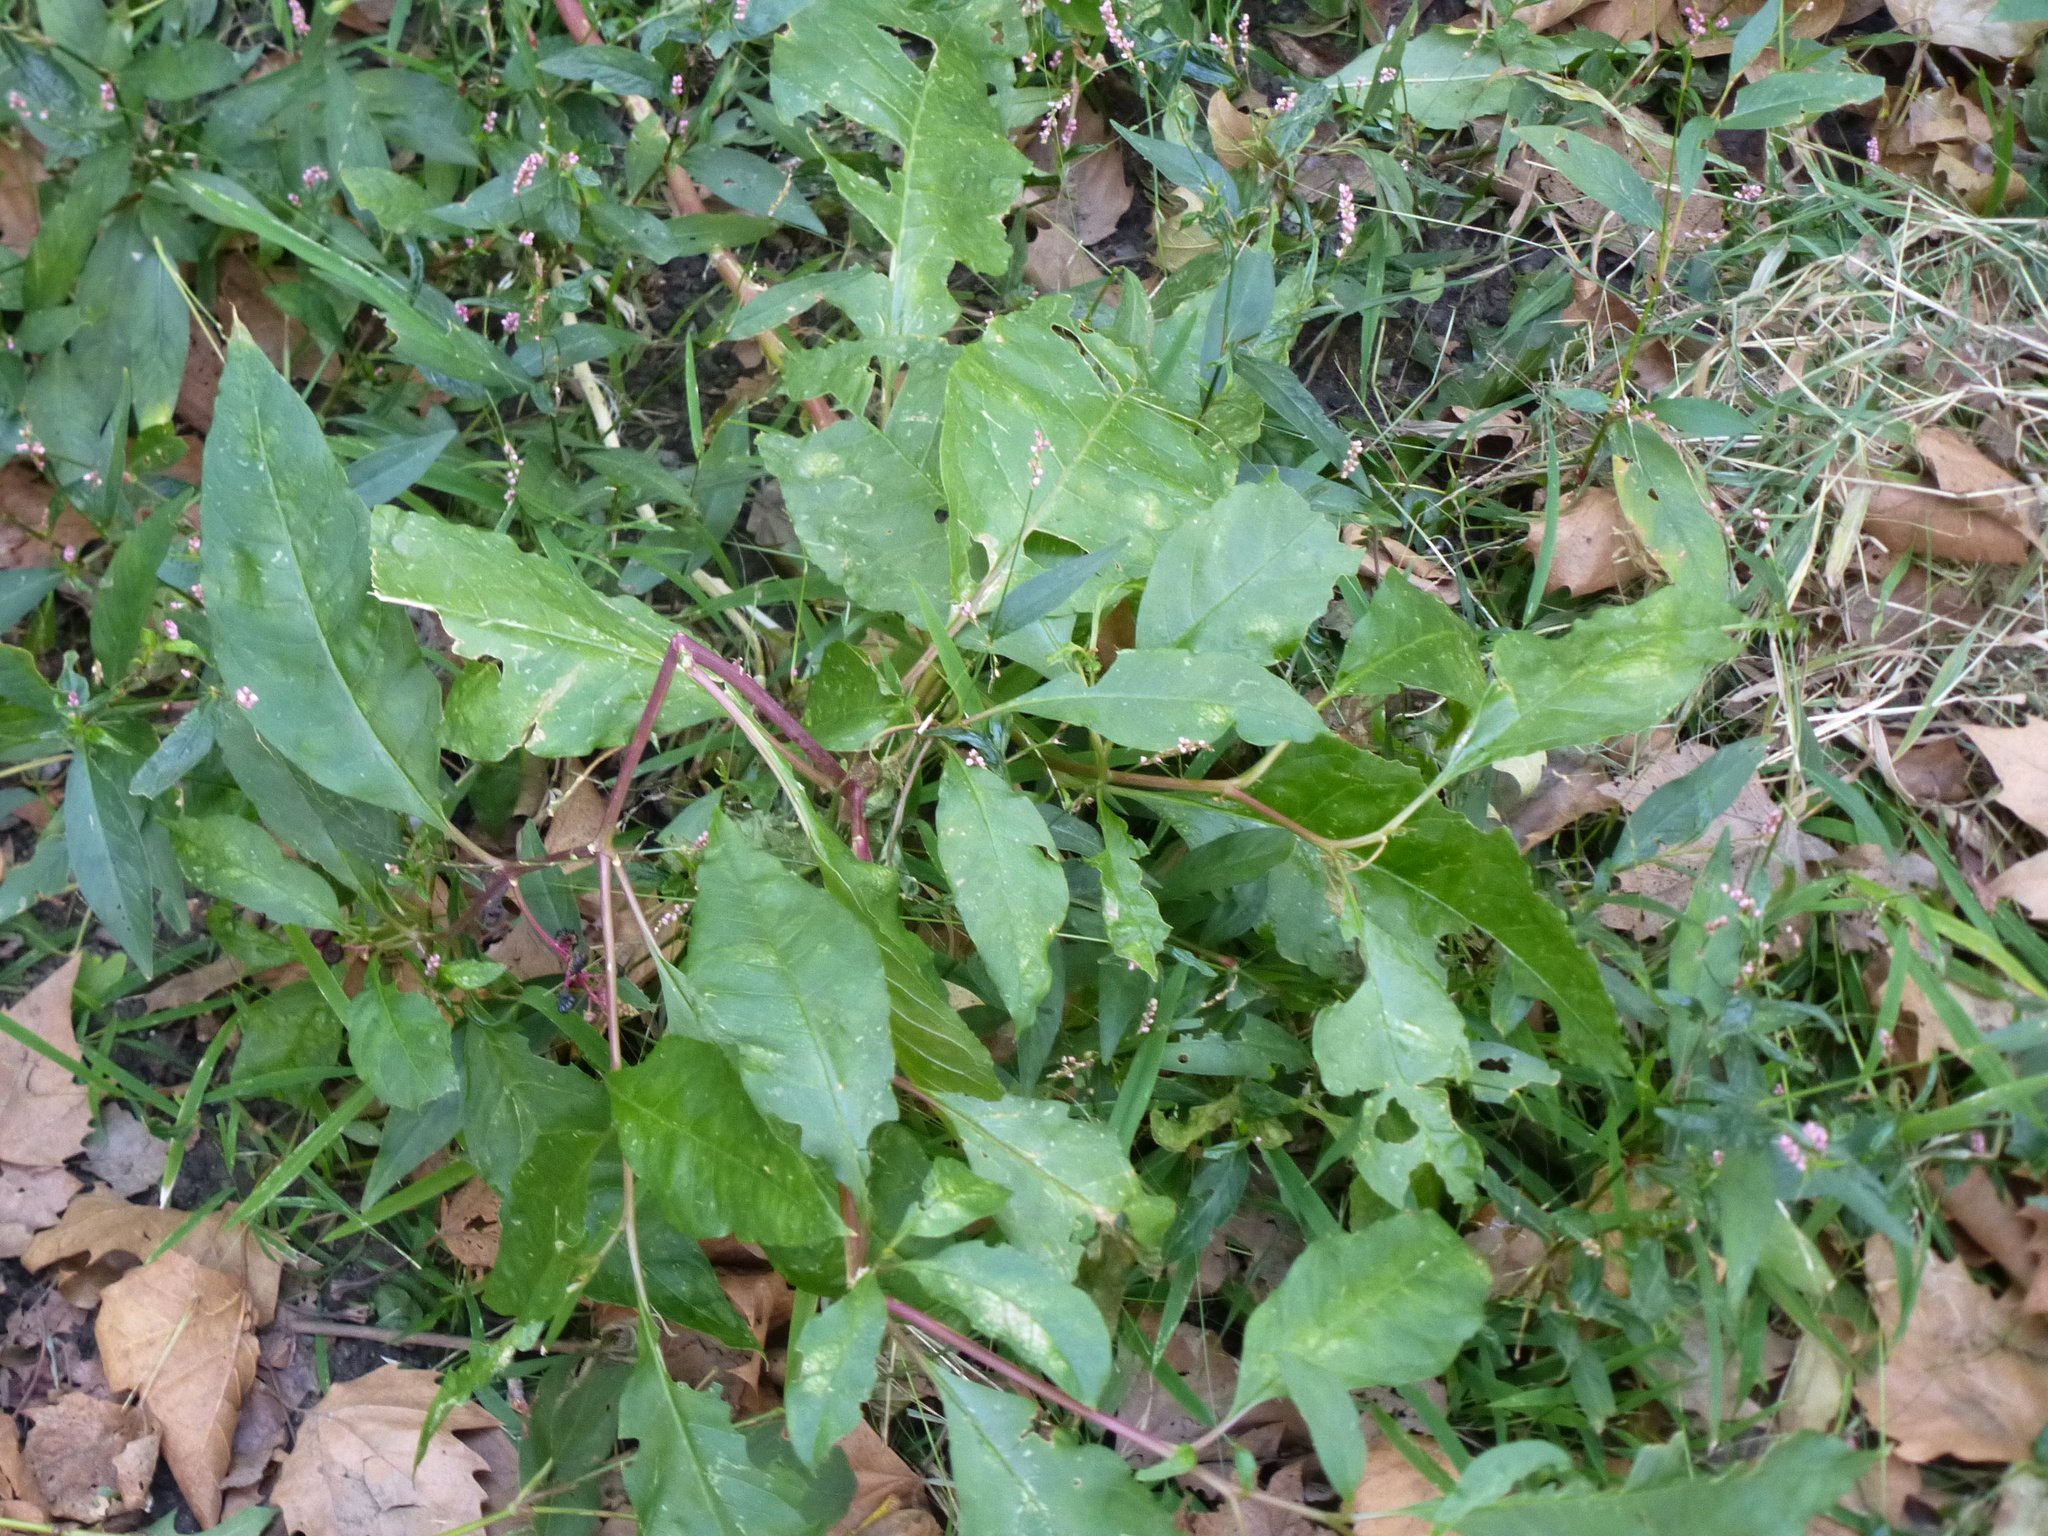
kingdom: Plantae
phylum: Tracheophyta
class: Magnoliopsida
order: Caryophyllales
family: Phytolaccaceae
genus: Phytolacca
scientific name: Phytolacca americana
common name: American pokeweed
